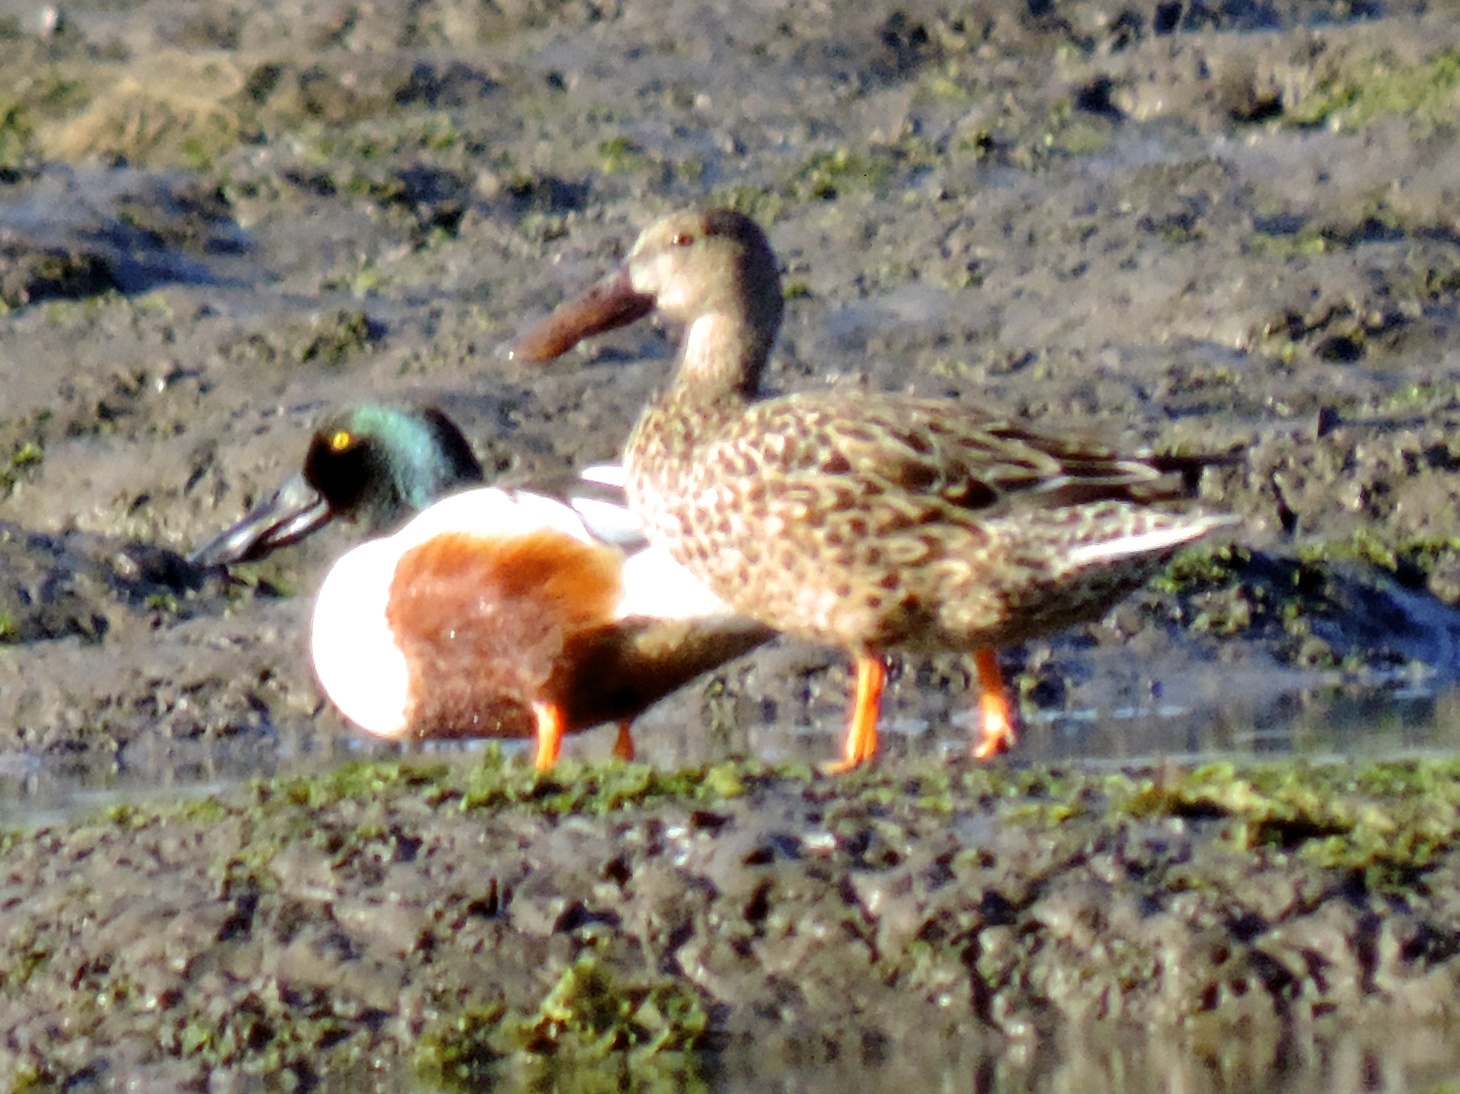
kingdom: Animalia
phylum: Chordata
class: Aves
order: Anseriformes
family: Anatidae
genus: Spatula
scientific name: Spatula clypeata
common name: Northern shoveler
